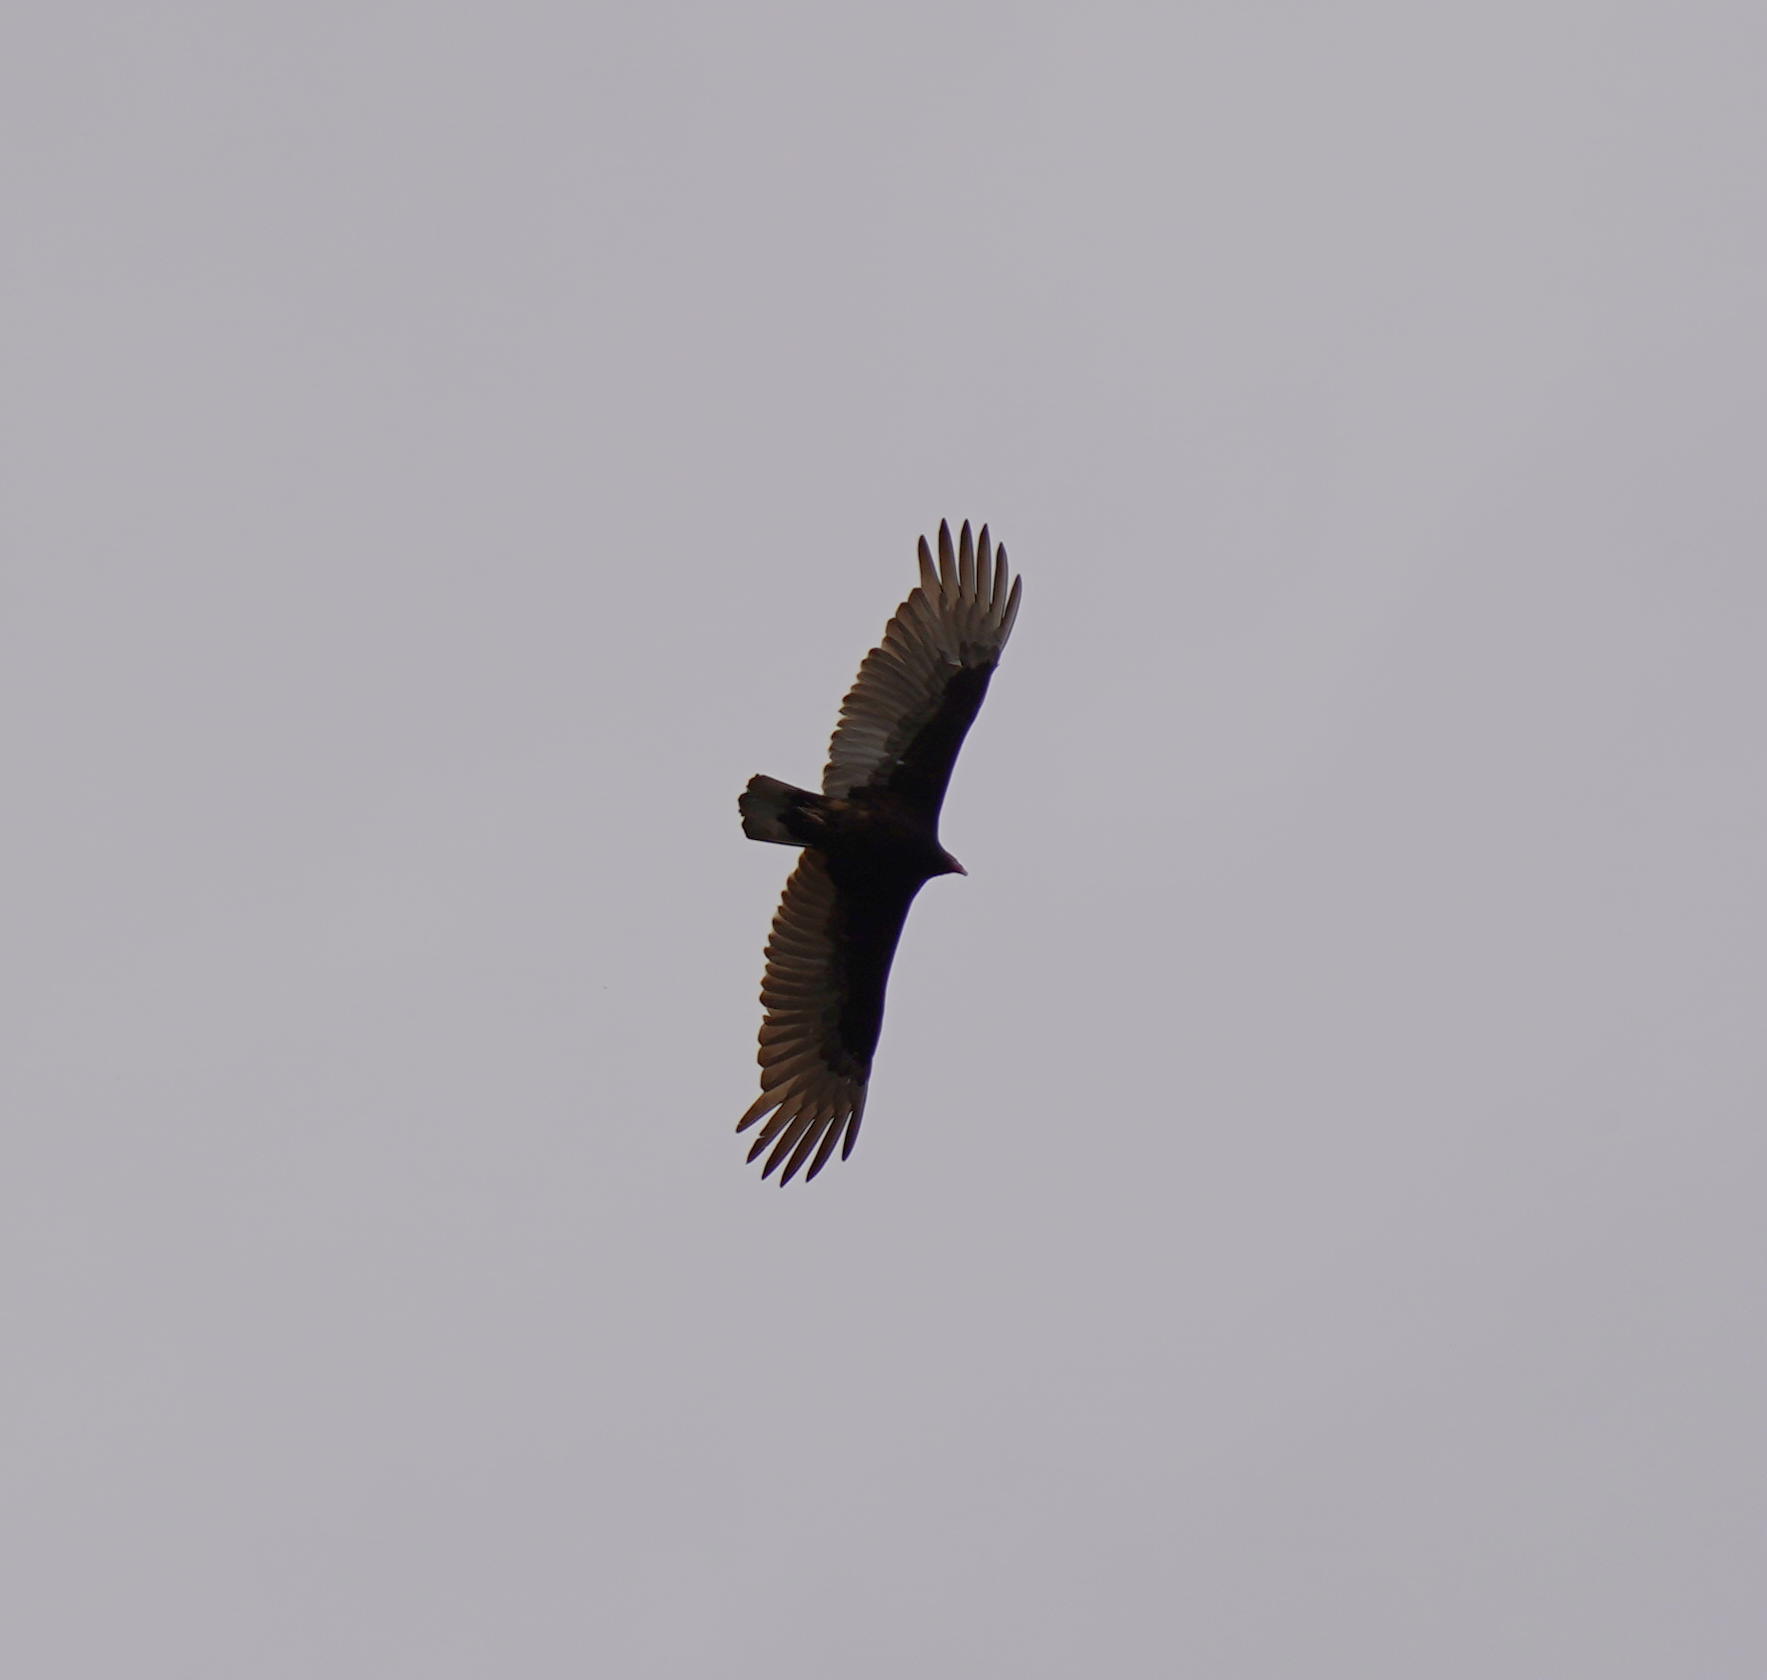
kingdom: Animalia
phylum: Chordata
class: Aves
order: Accipitriformes
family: Cathartidae
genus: Cathartes
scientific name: Cathartes aura
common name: Turkey vulture
